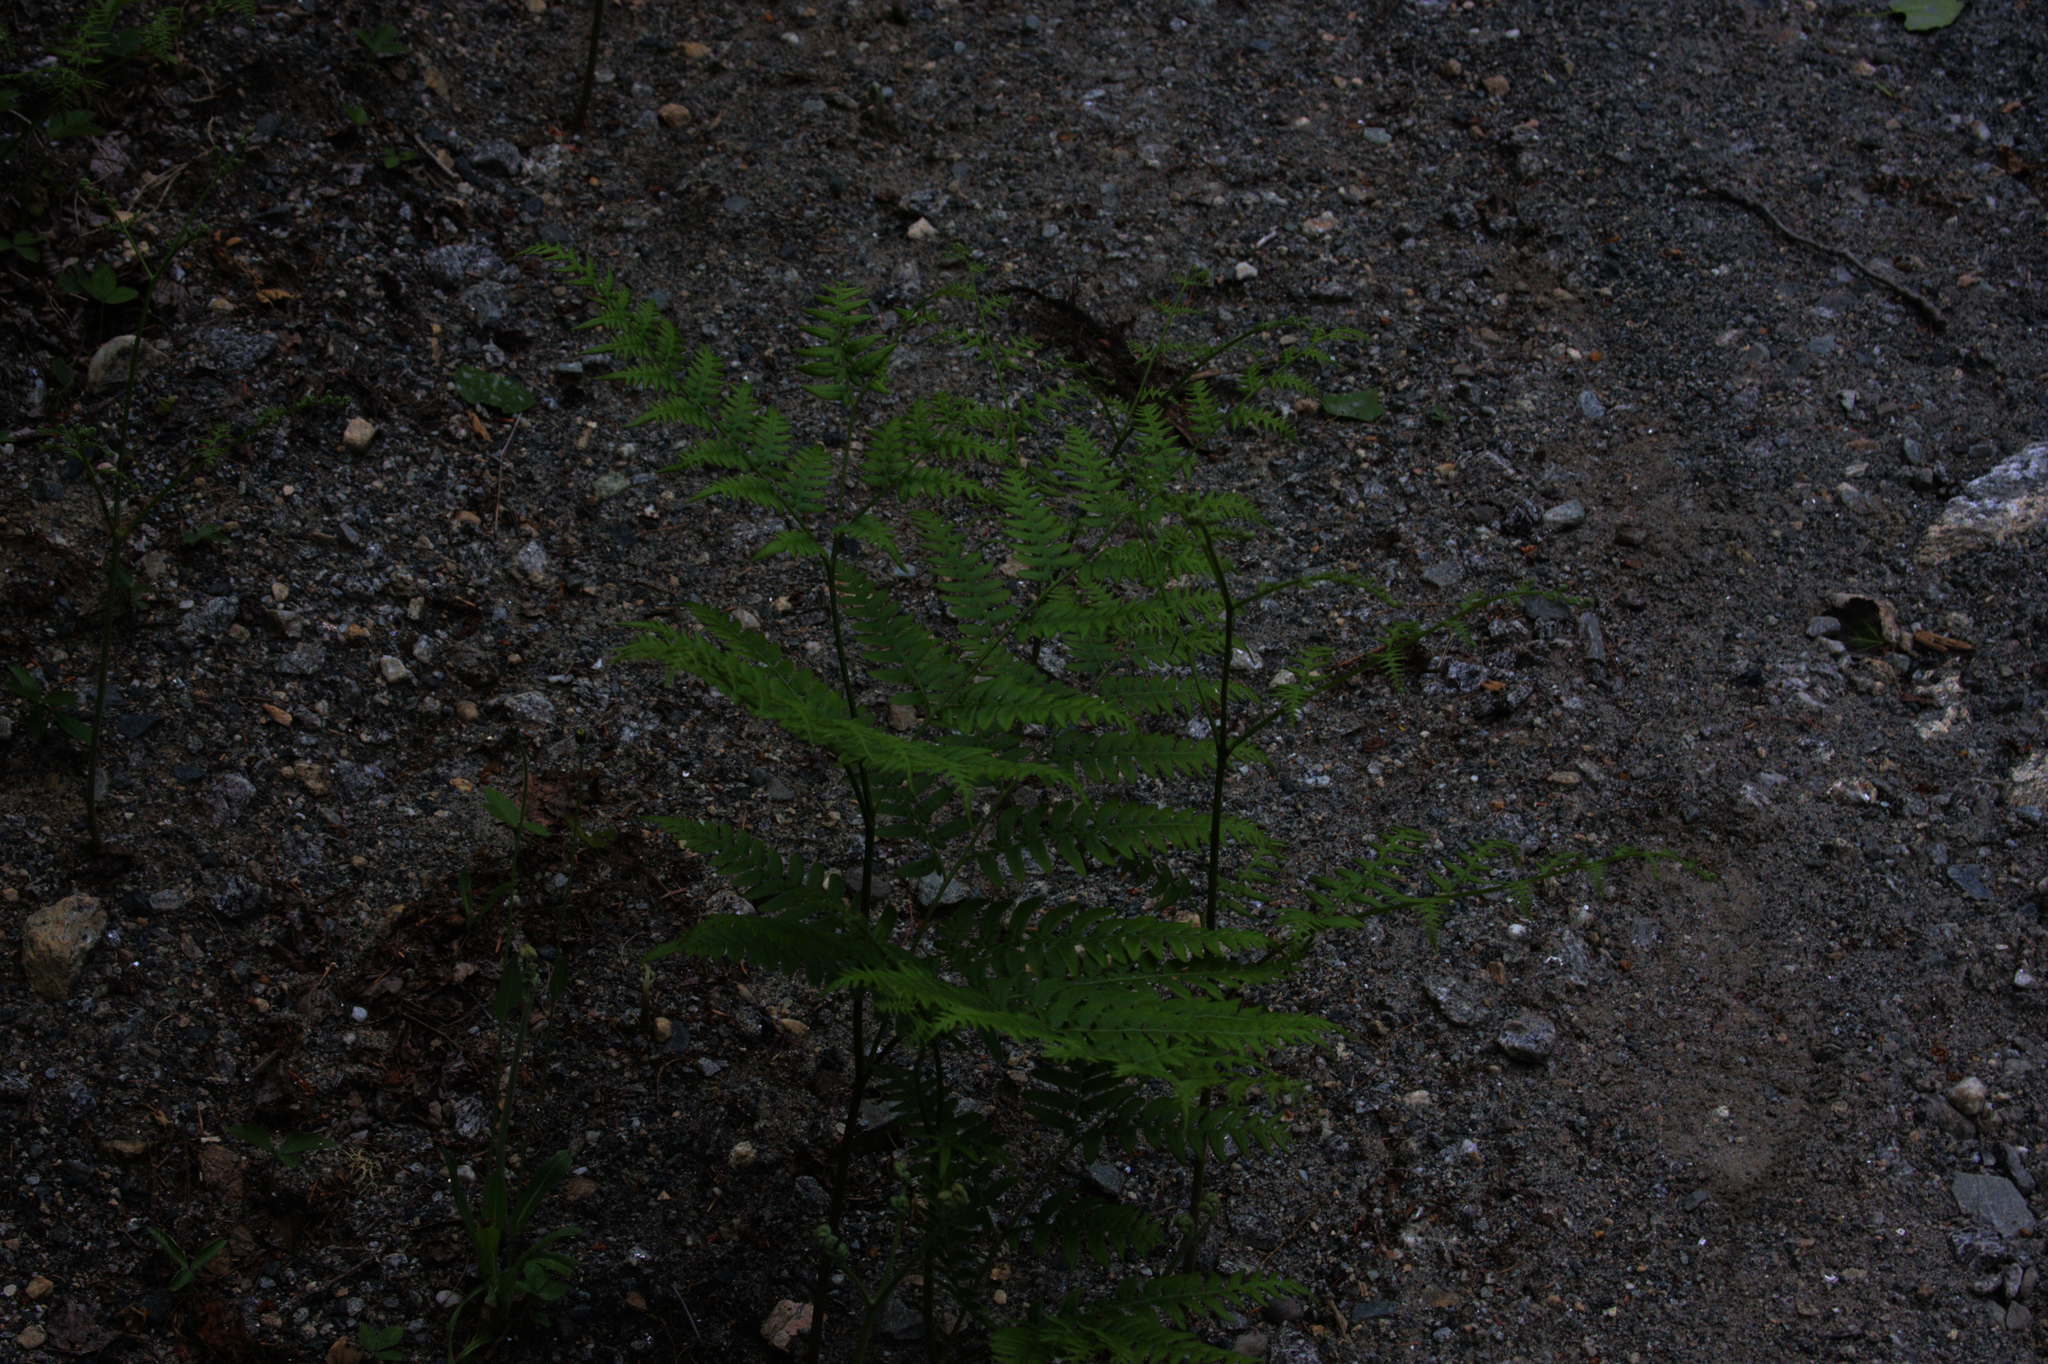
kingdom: Plantae
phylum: Tracheophyta
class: Polypodiopsida
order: Polypodiales
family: Dennstaedtiaceae
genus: Pteridium
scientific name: Pteridium aquilinum
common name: Bracken
